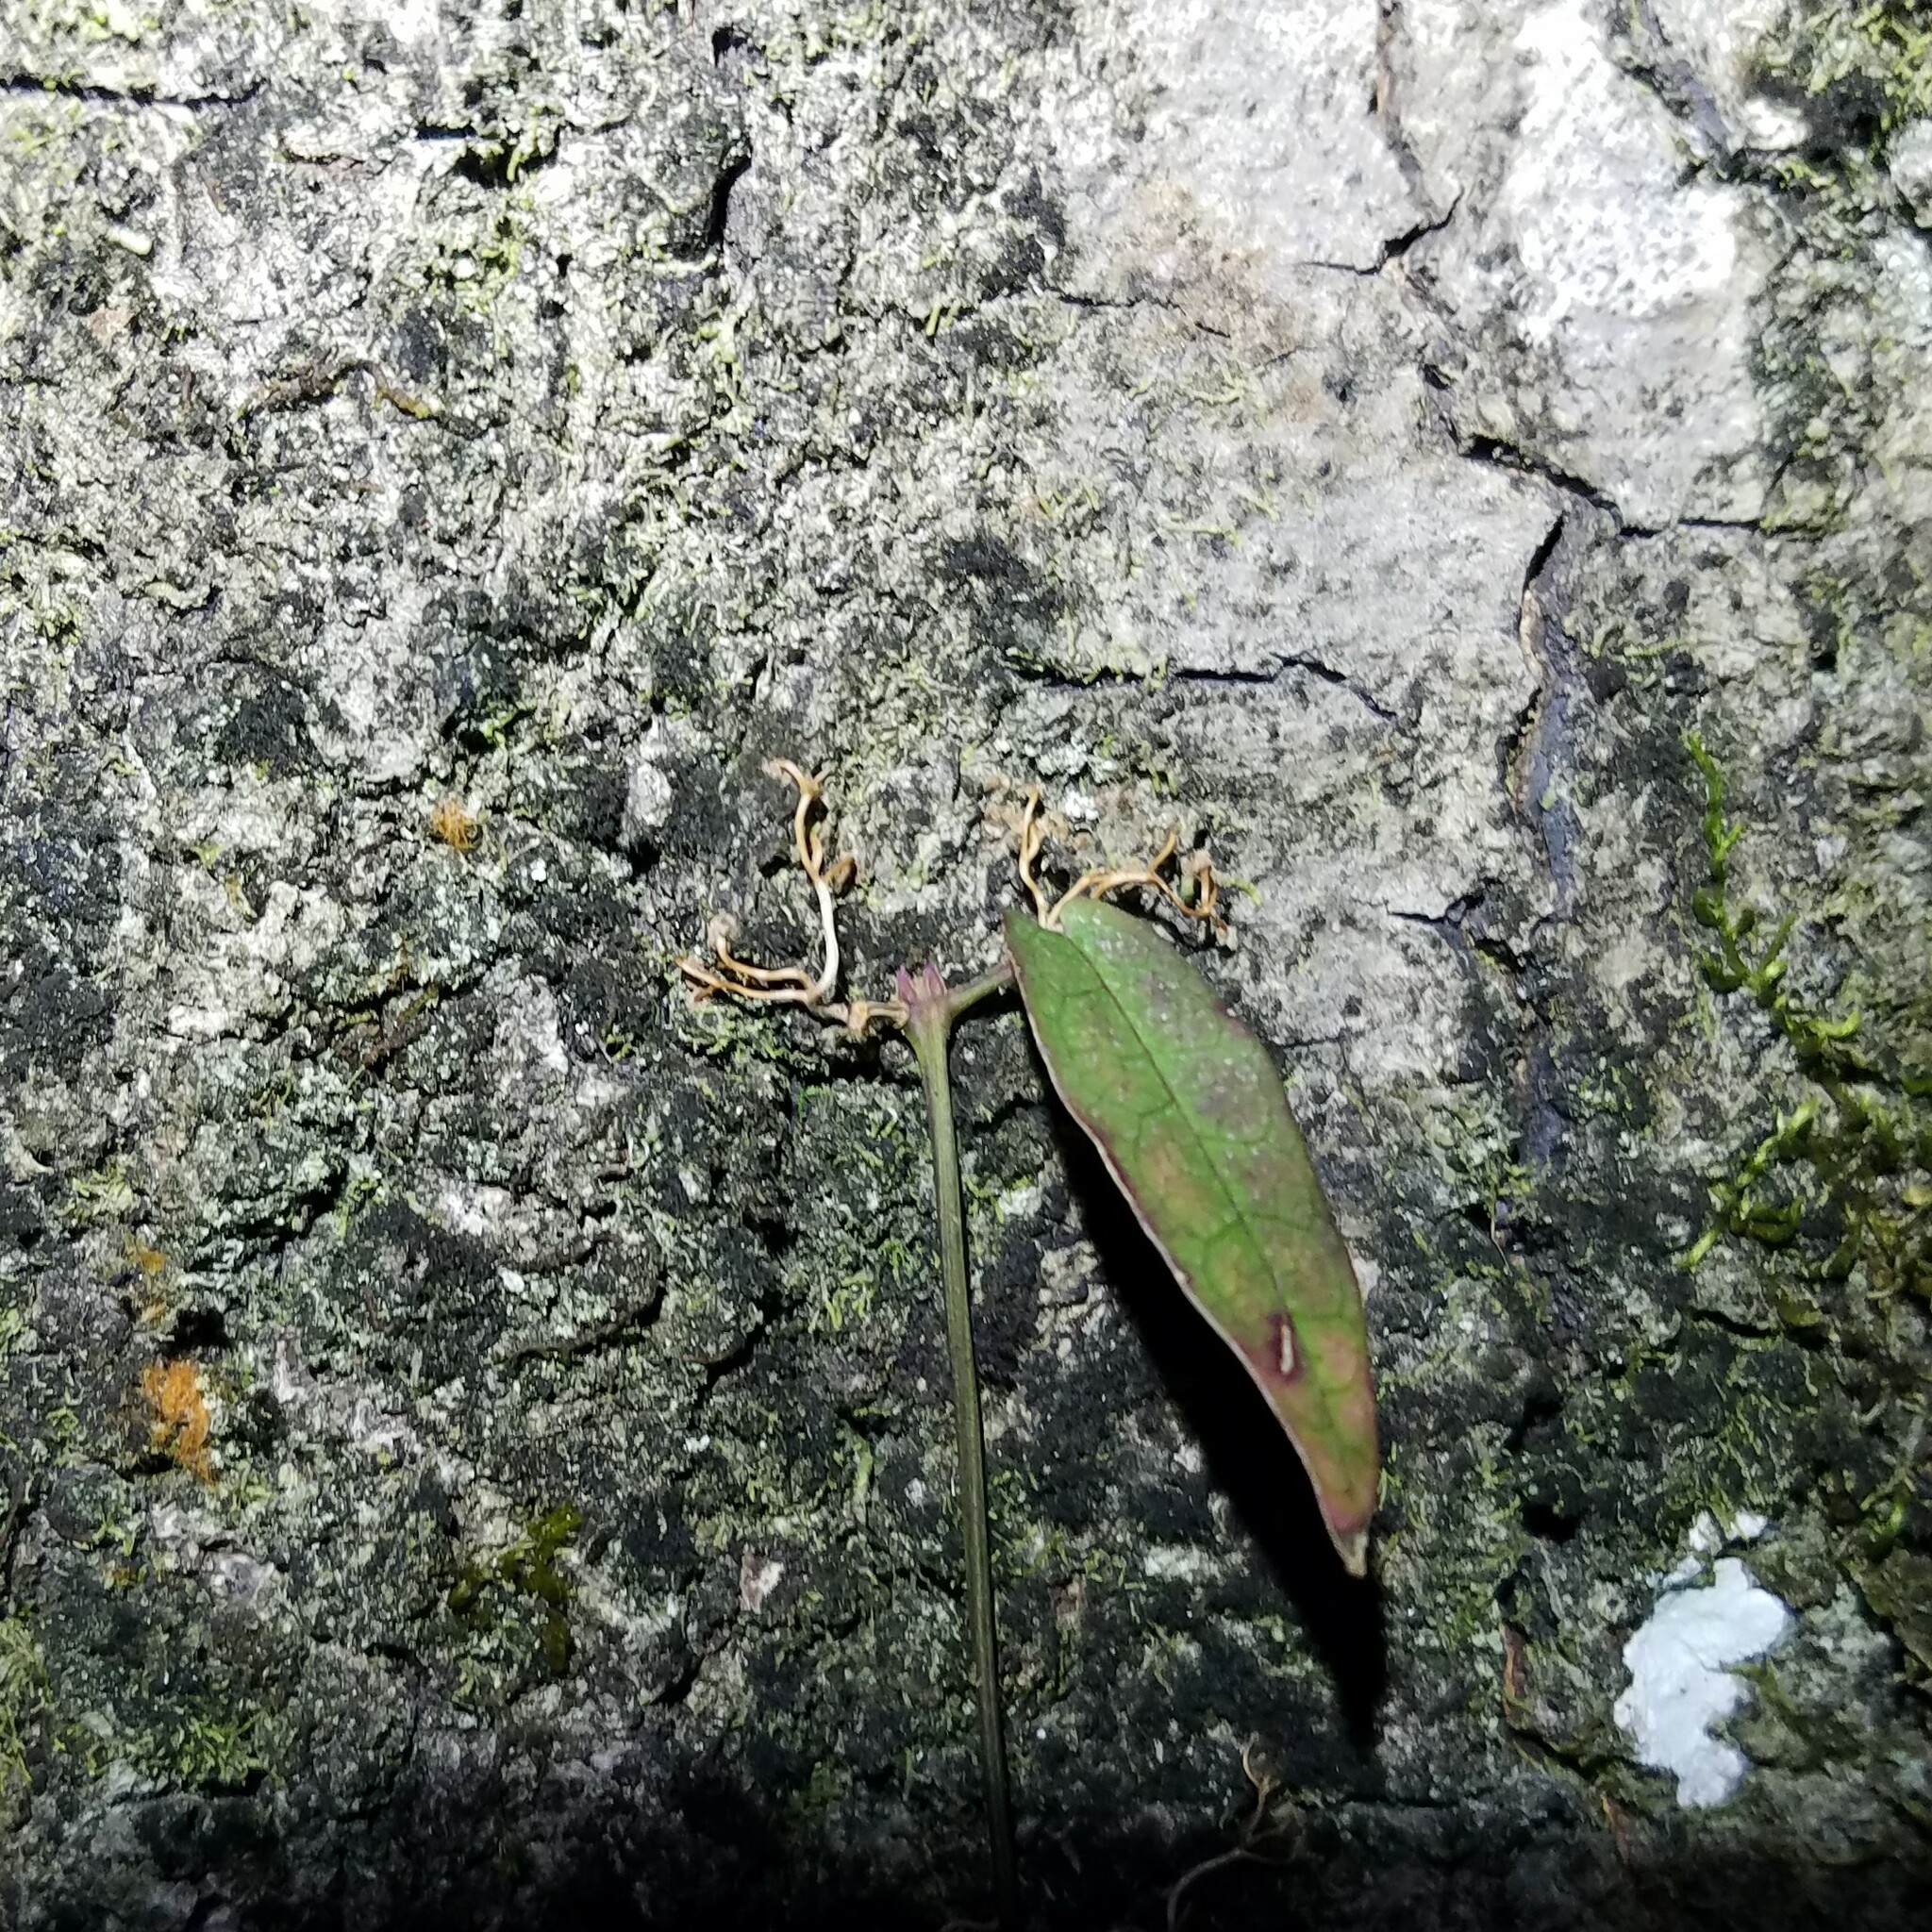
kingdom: Plantae
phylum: Tracheophyta
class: Magnoliopsida
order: Lamiales
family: Bignoniaceae
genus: Bignonia
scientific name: Bignonia capreolata
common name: Crossvine
